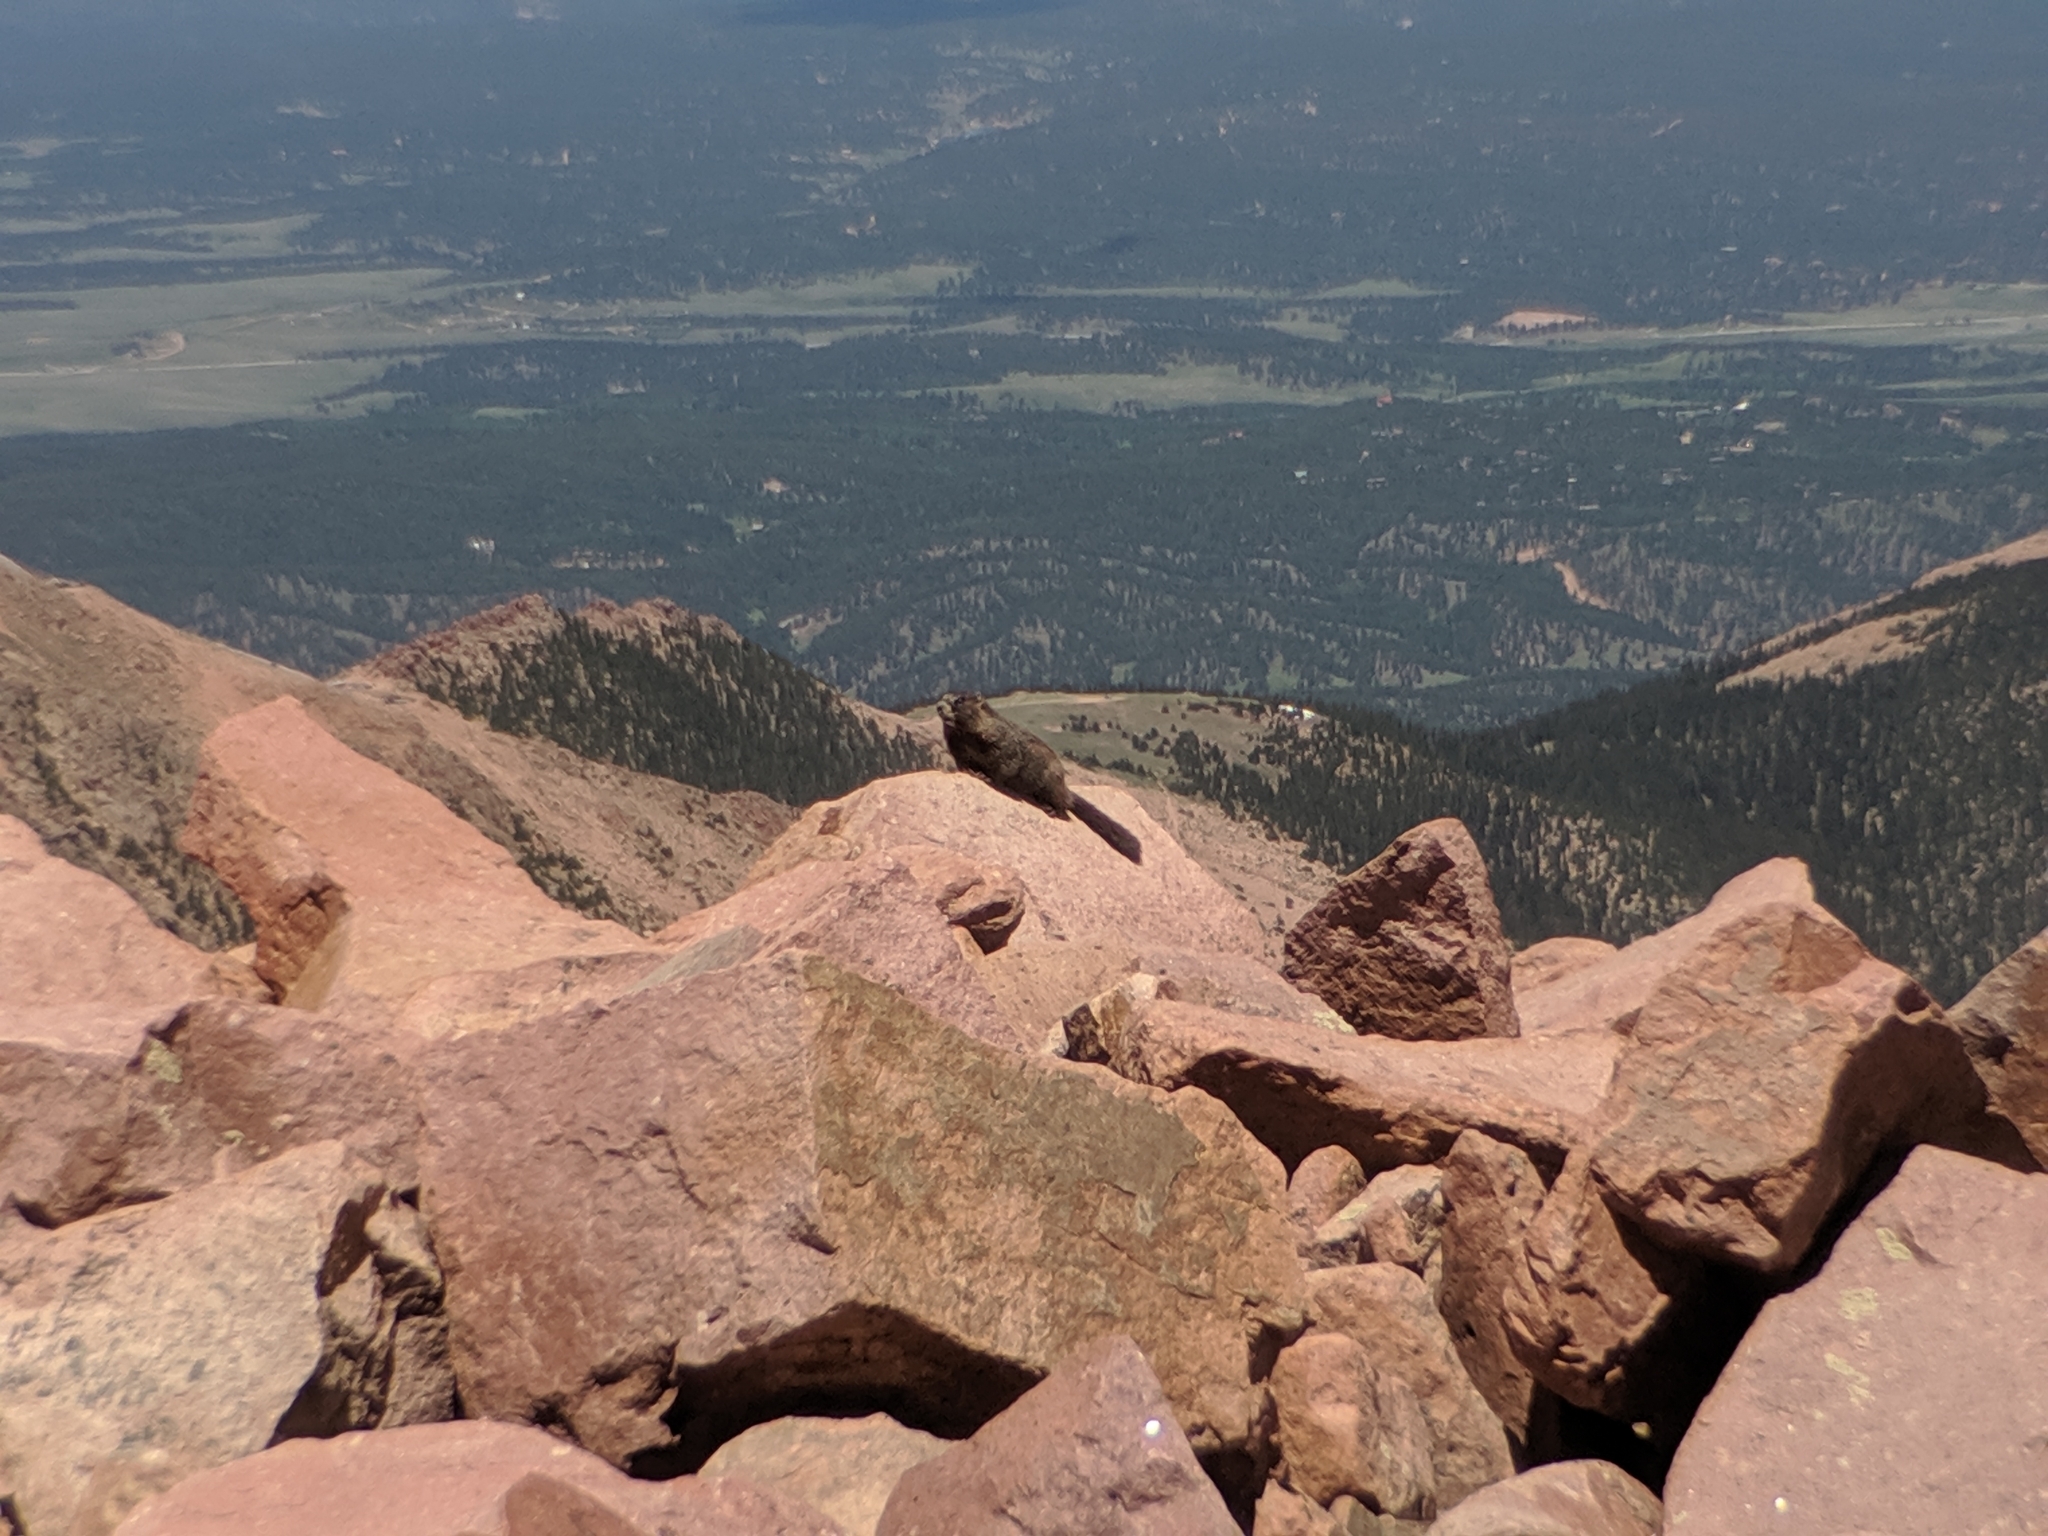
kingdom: Animalia
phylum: Chordata
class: Mammalia
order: Rodentia
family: Sciuridae
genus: Marmota
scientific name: Marmota flaviventris
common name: Yellow-bellied marmot
